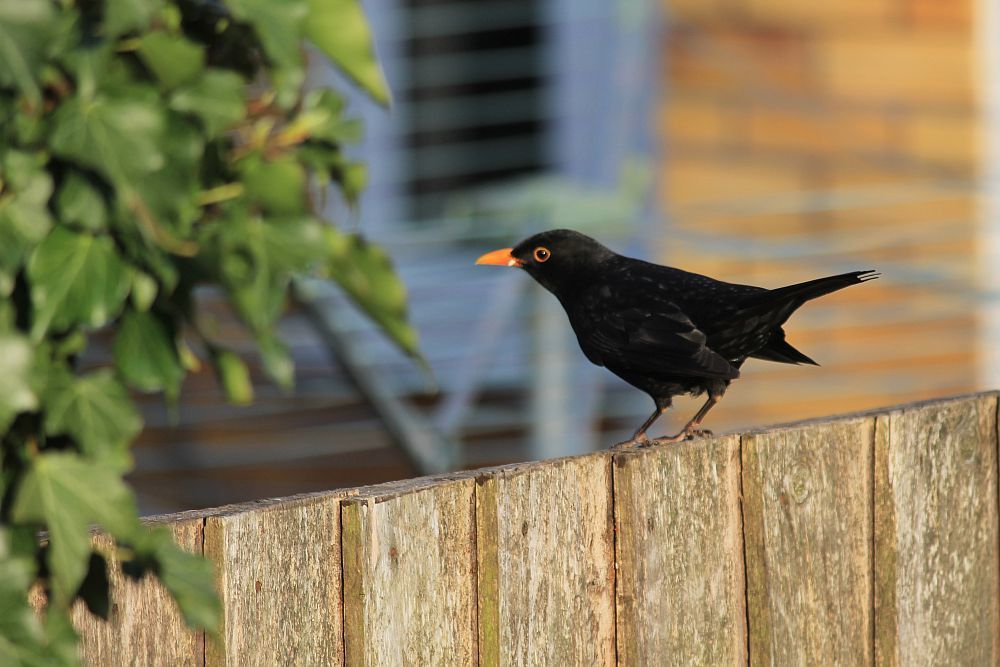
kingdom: Animalia
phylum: Chordata
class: Aves
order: Passeriformes
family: Turdidae
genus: Turdus
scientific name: Turdus merula
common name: Common blackbird
